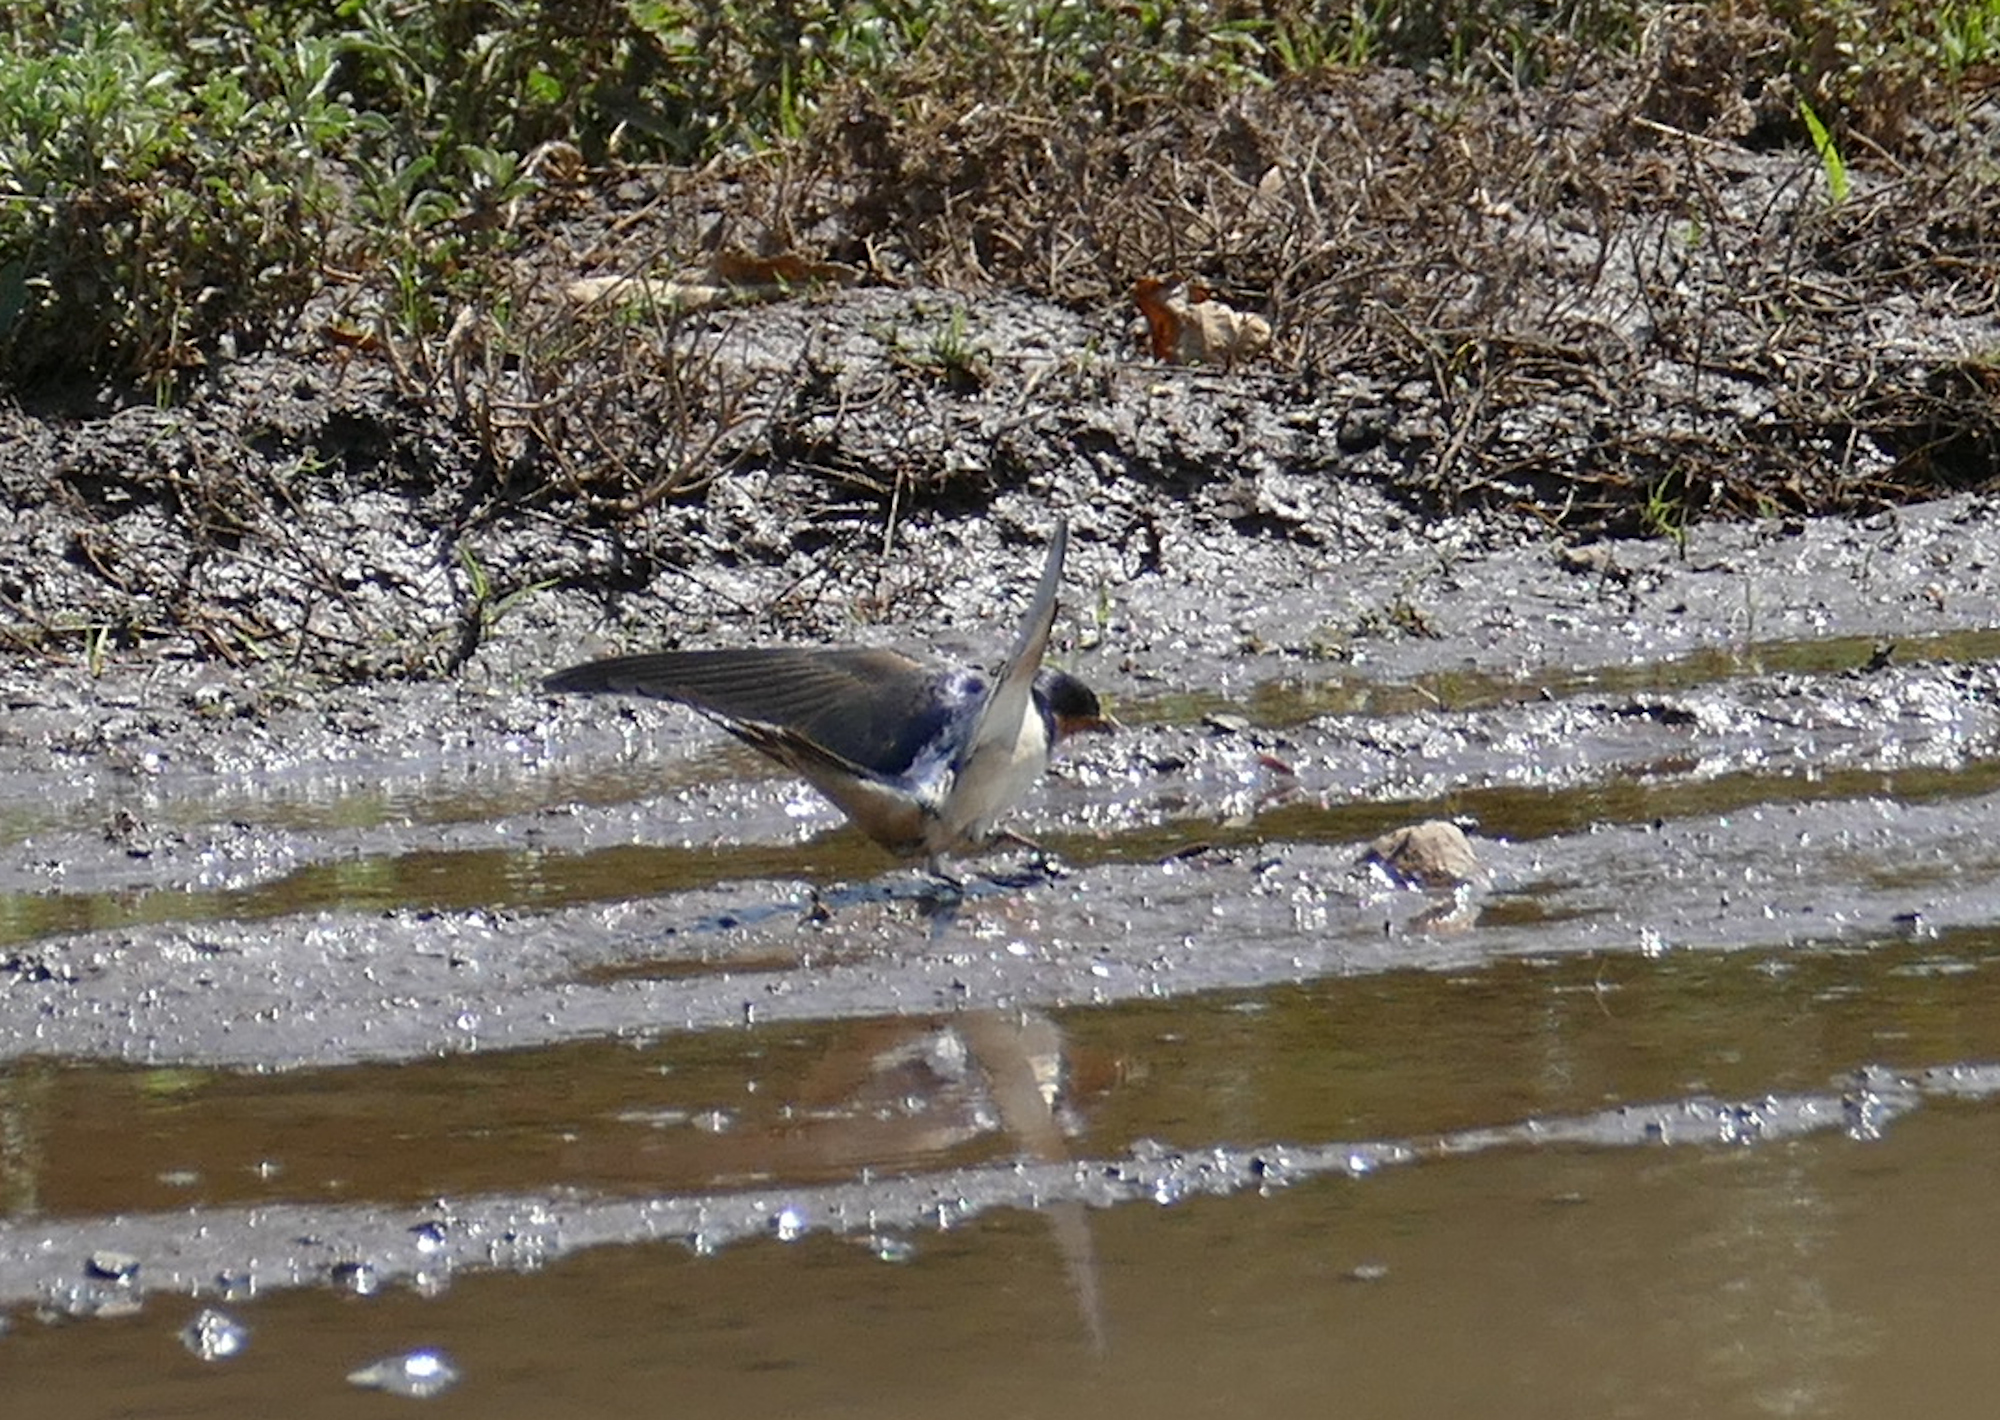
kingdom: Animalia
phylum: Chordata
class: Aves
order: Passeriformes
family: Hirundinidae
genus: Hirundo
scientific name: Hirundo rustica
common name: Barn swallow
